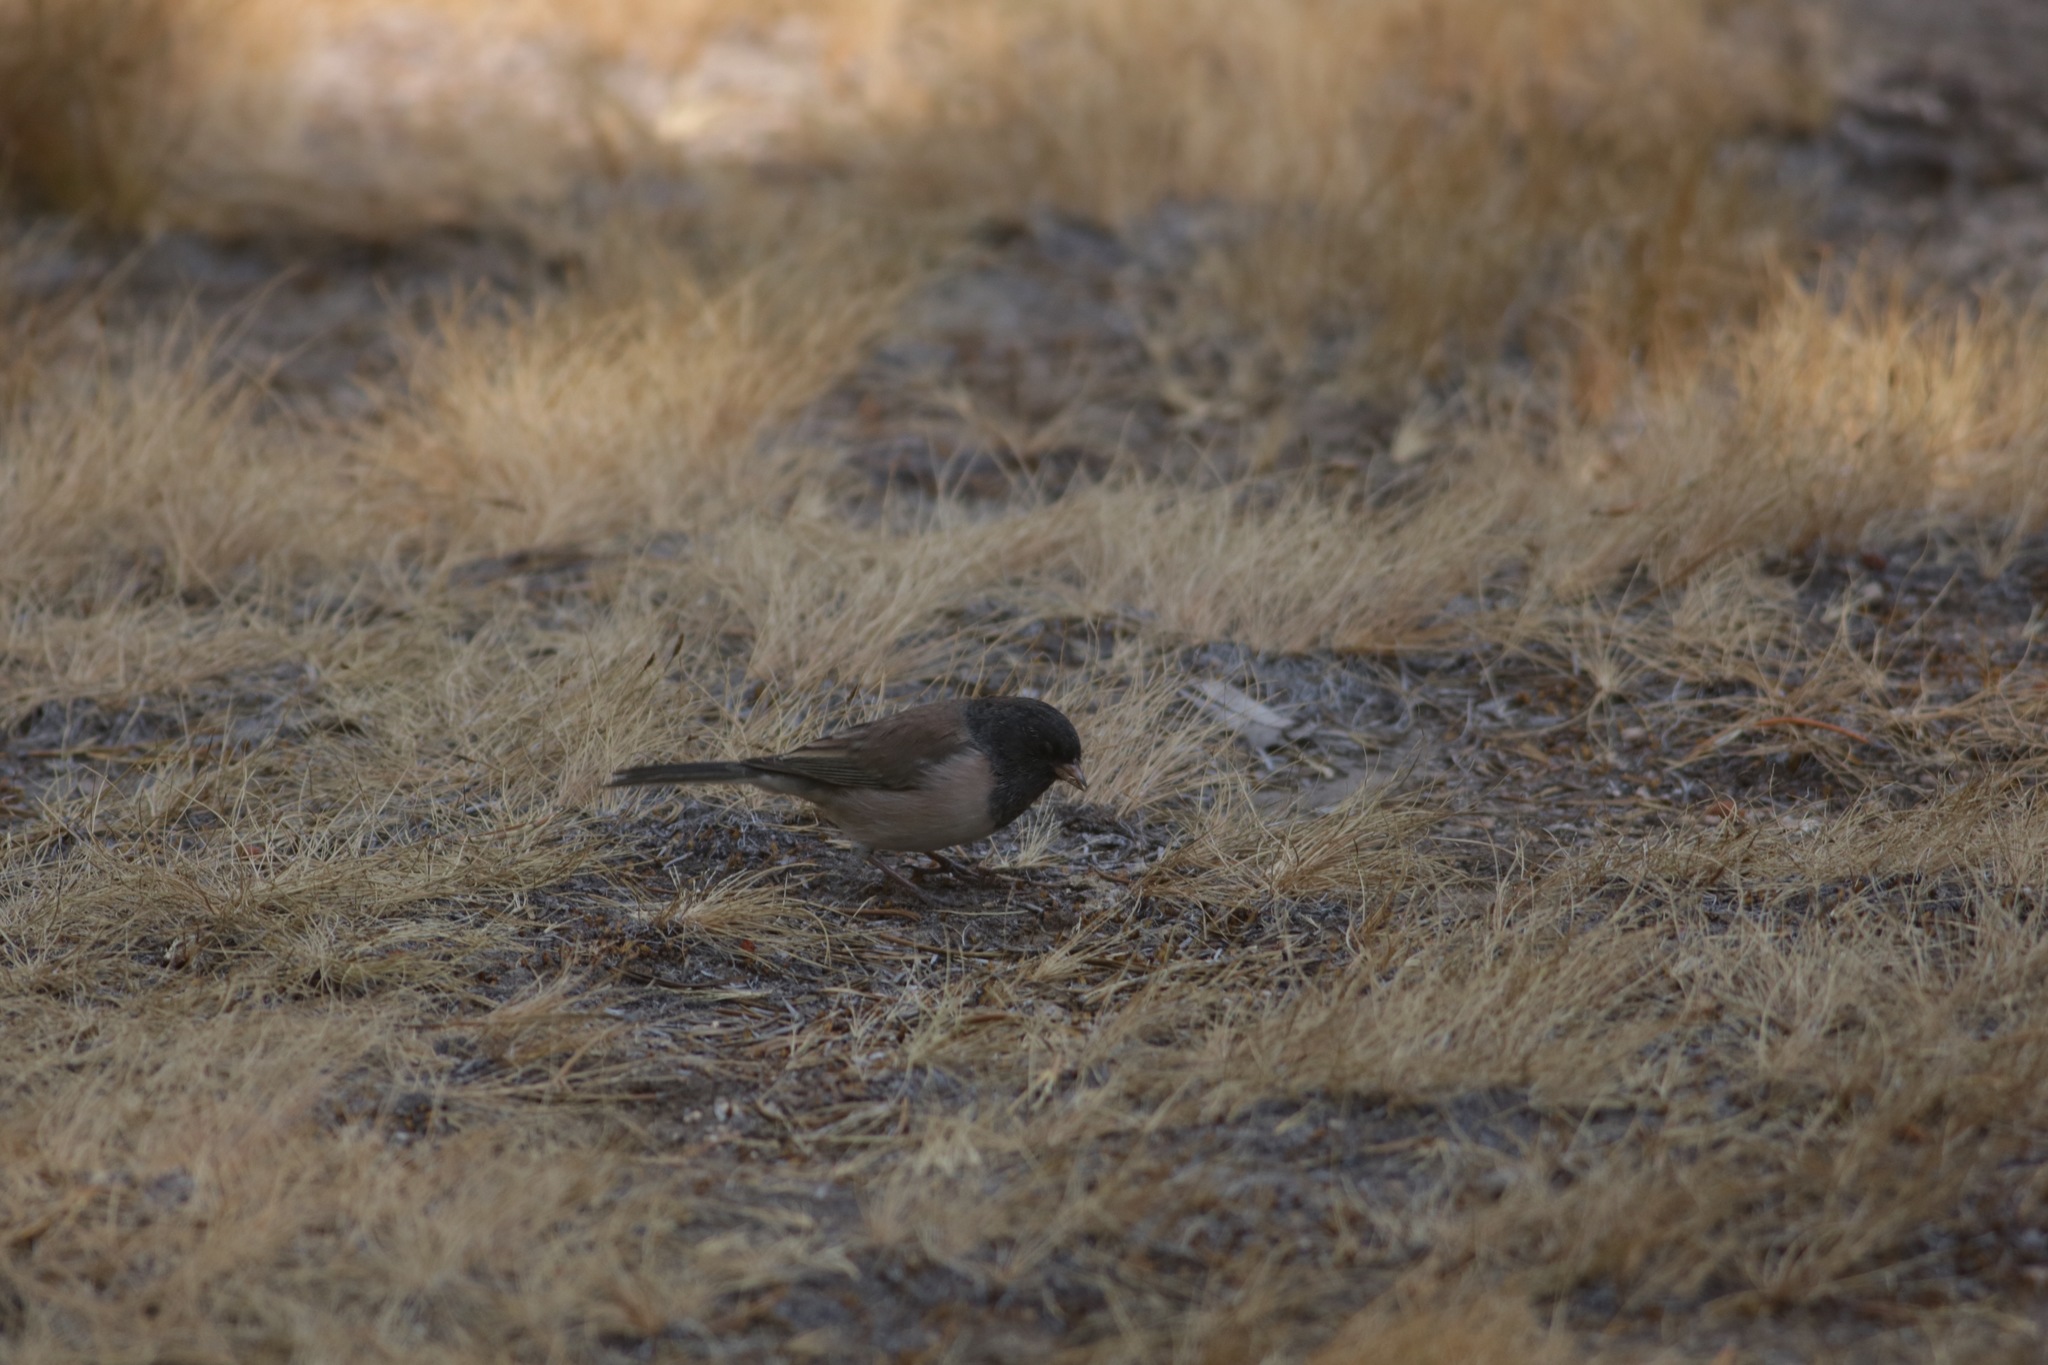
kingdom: Animalia
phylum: Chordata
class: Aves
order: Passeriformes
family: Passerellidae
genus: Junco
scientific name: Junco hyemalis
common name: Dark-eyed junco
